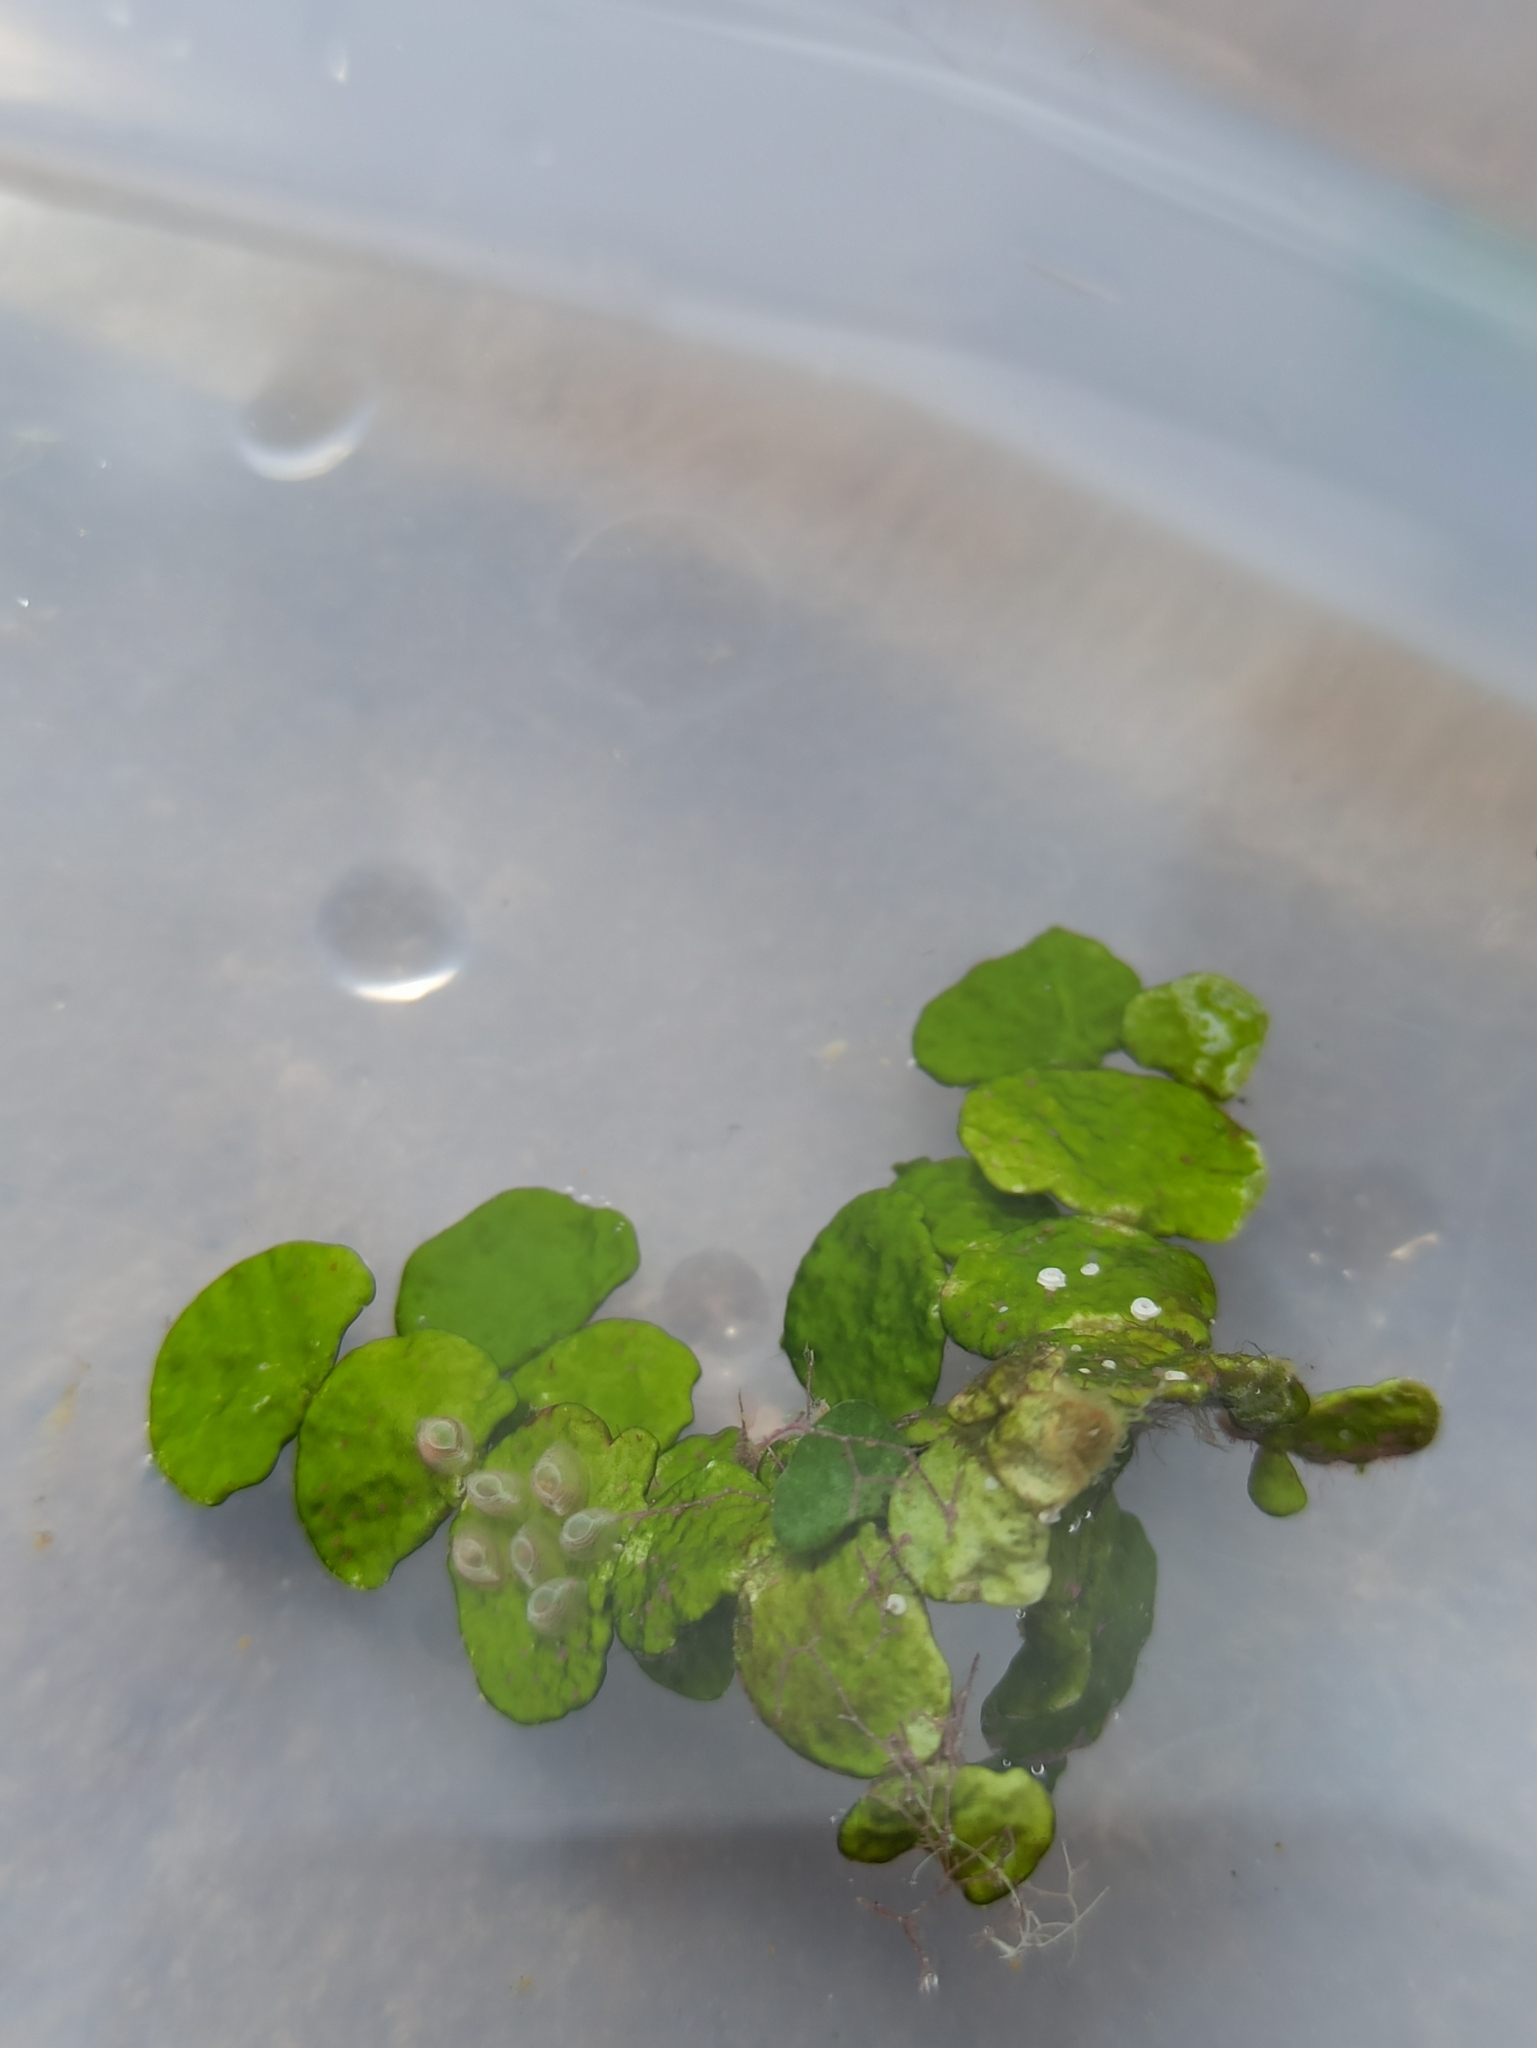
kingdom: Plantae
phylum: Chlorophyta
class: Ulvophyceae
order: Bryopsidales
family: Halimedaceae
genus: Halimeda
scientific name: Halimeda tuna
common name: Stalked lettuce leaf algae
